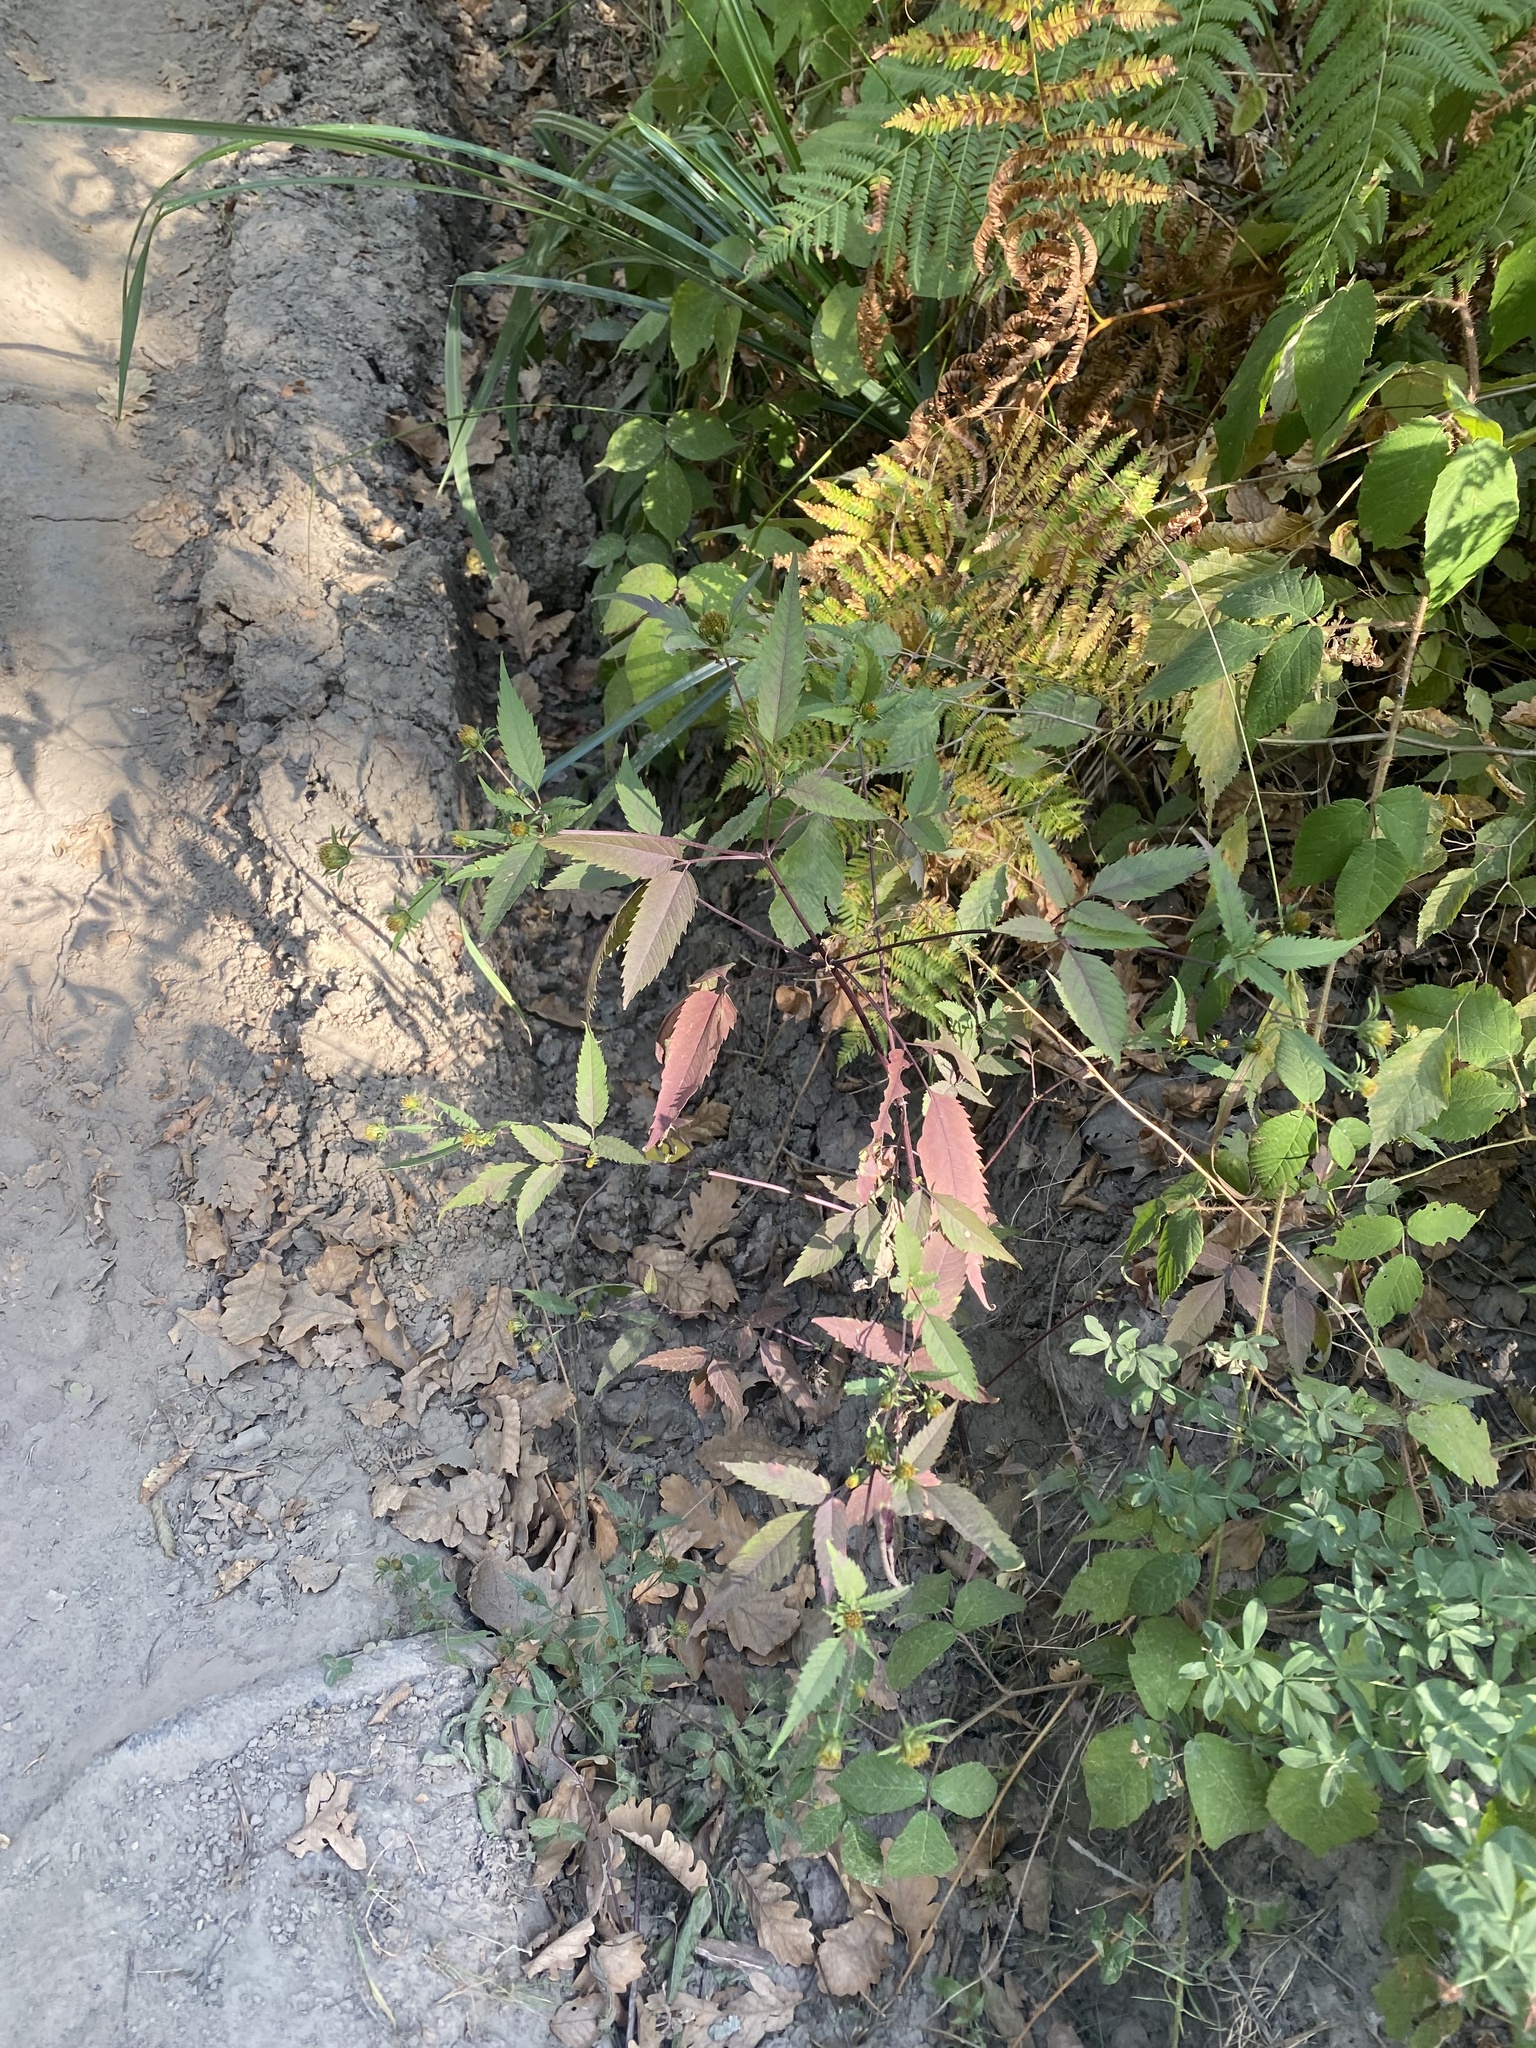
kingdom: Plantae
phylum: Tracheophyta
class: Magnoliopsida
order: Asterales
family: Asteraceae
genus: Bidens
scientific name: Bidens frondosa
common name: Beggarticks
